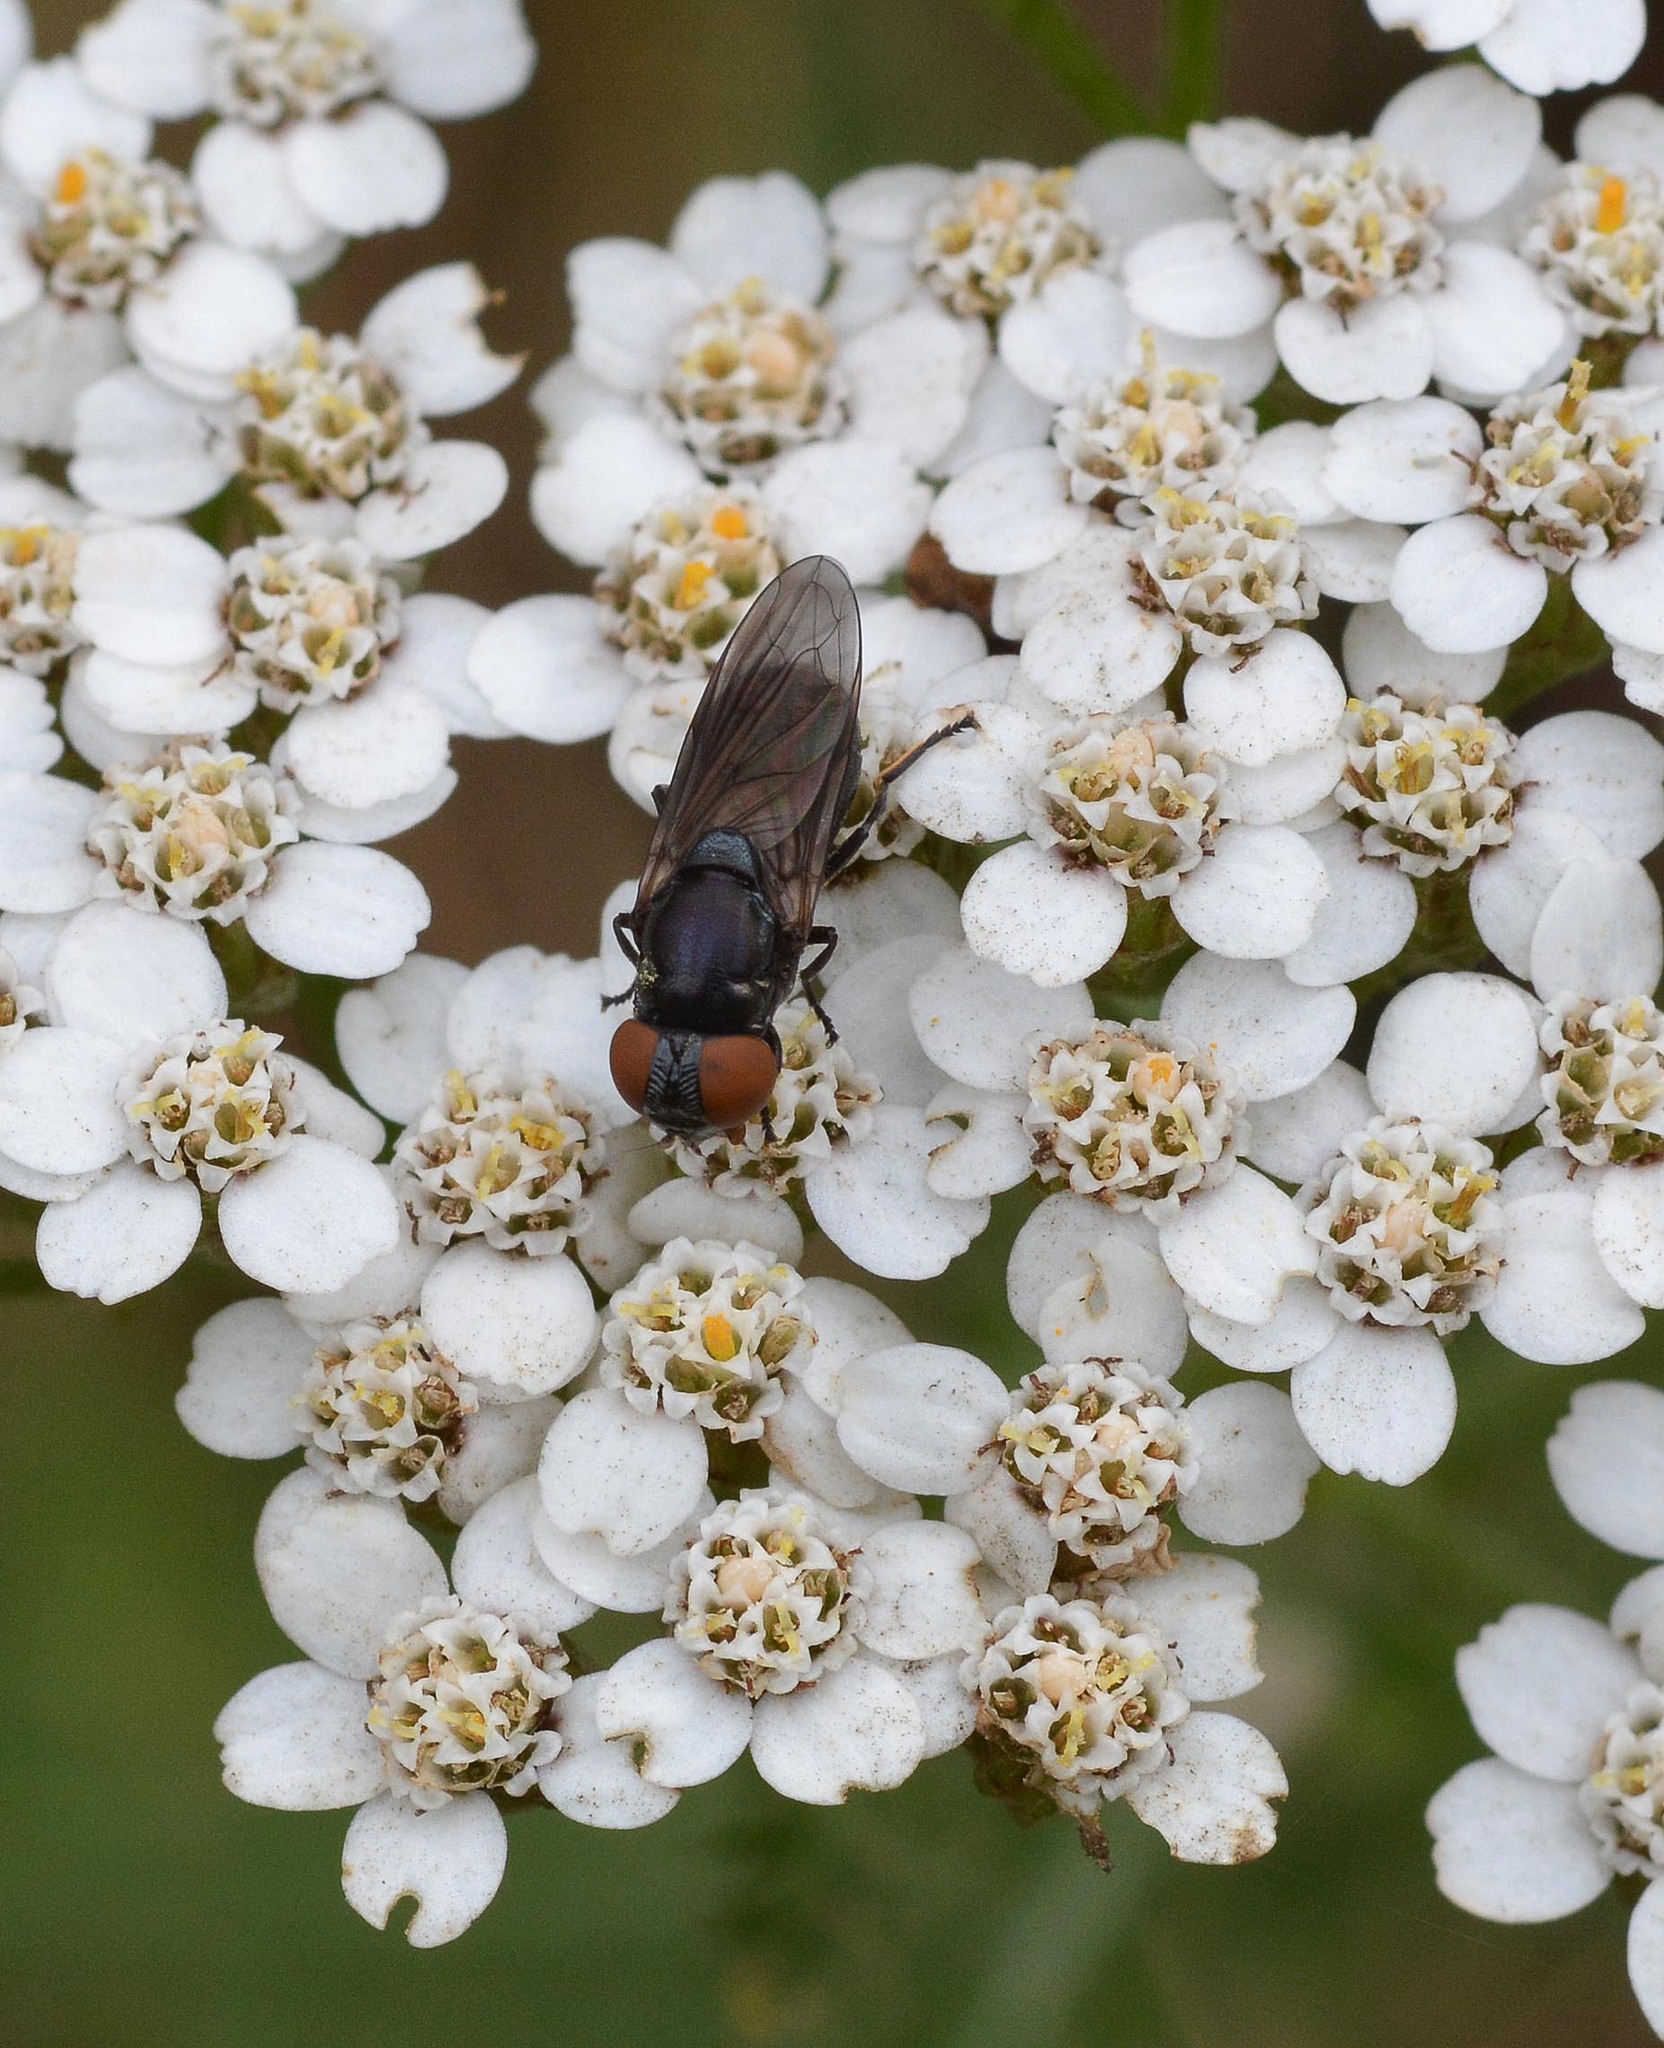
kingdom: Animalia
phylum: Arthropoda
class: Insecta
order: Diptera
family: Syrphidae
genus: Chrysogaster
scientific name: Chrysogaster cemiteriorum
